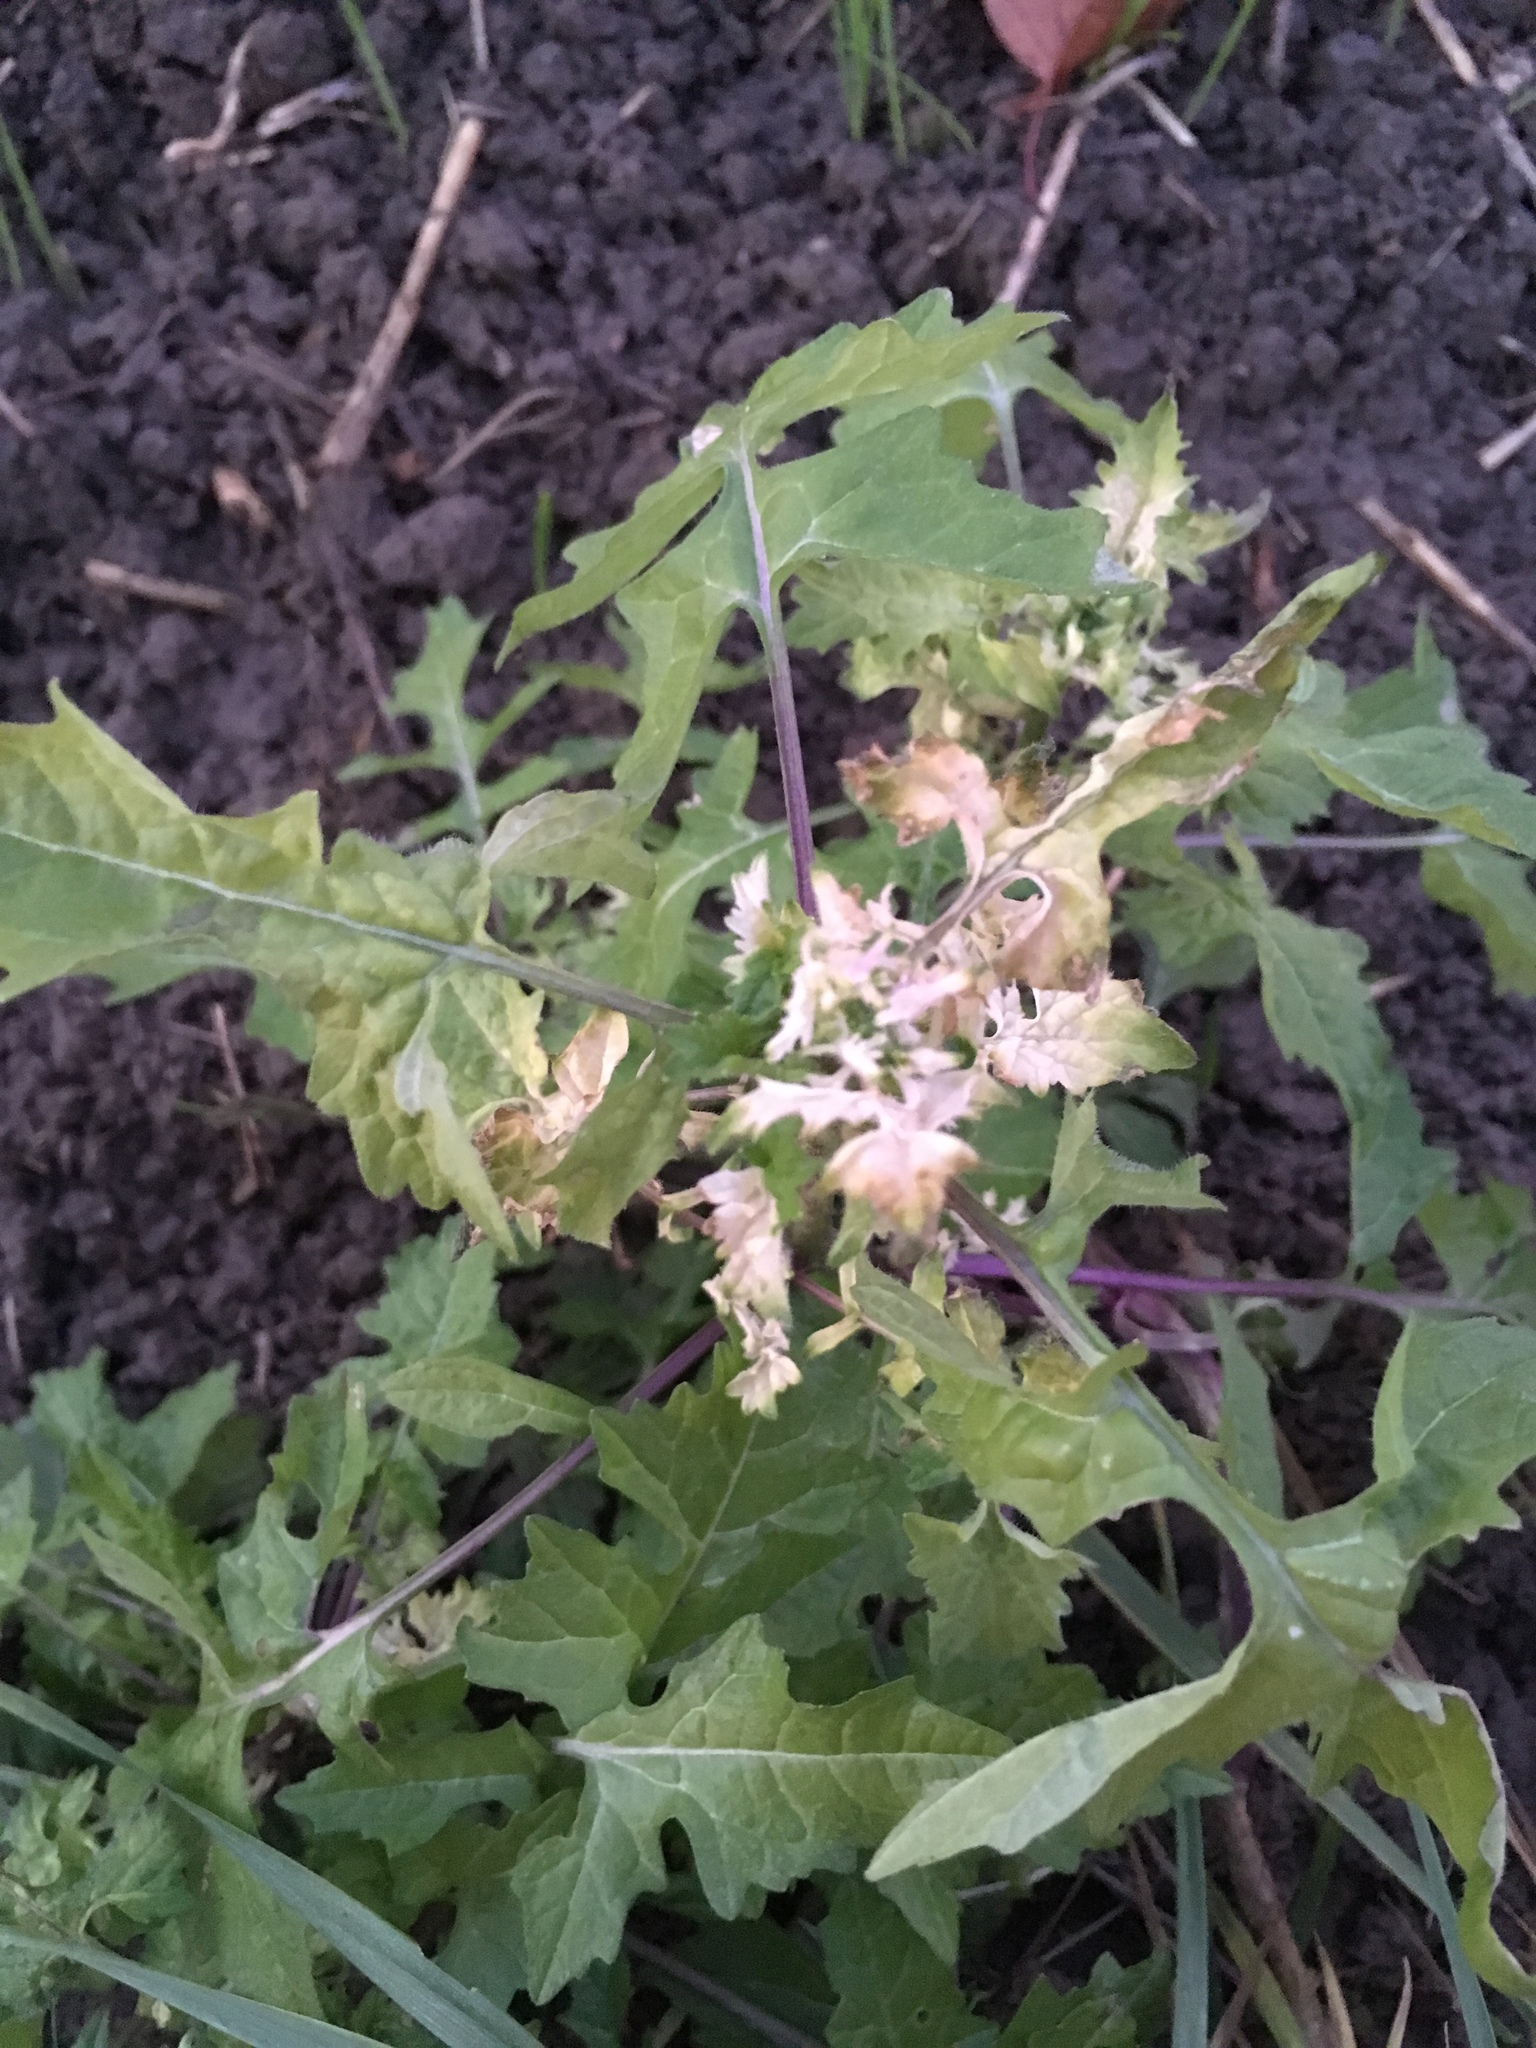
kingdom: Plantae
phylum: Tracheophyta
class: Magnoliopsida
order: Brassicales
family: Brassicaceae
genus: Sisymbrium
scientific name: Sisymbrium officinale
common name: Hedge mustard
